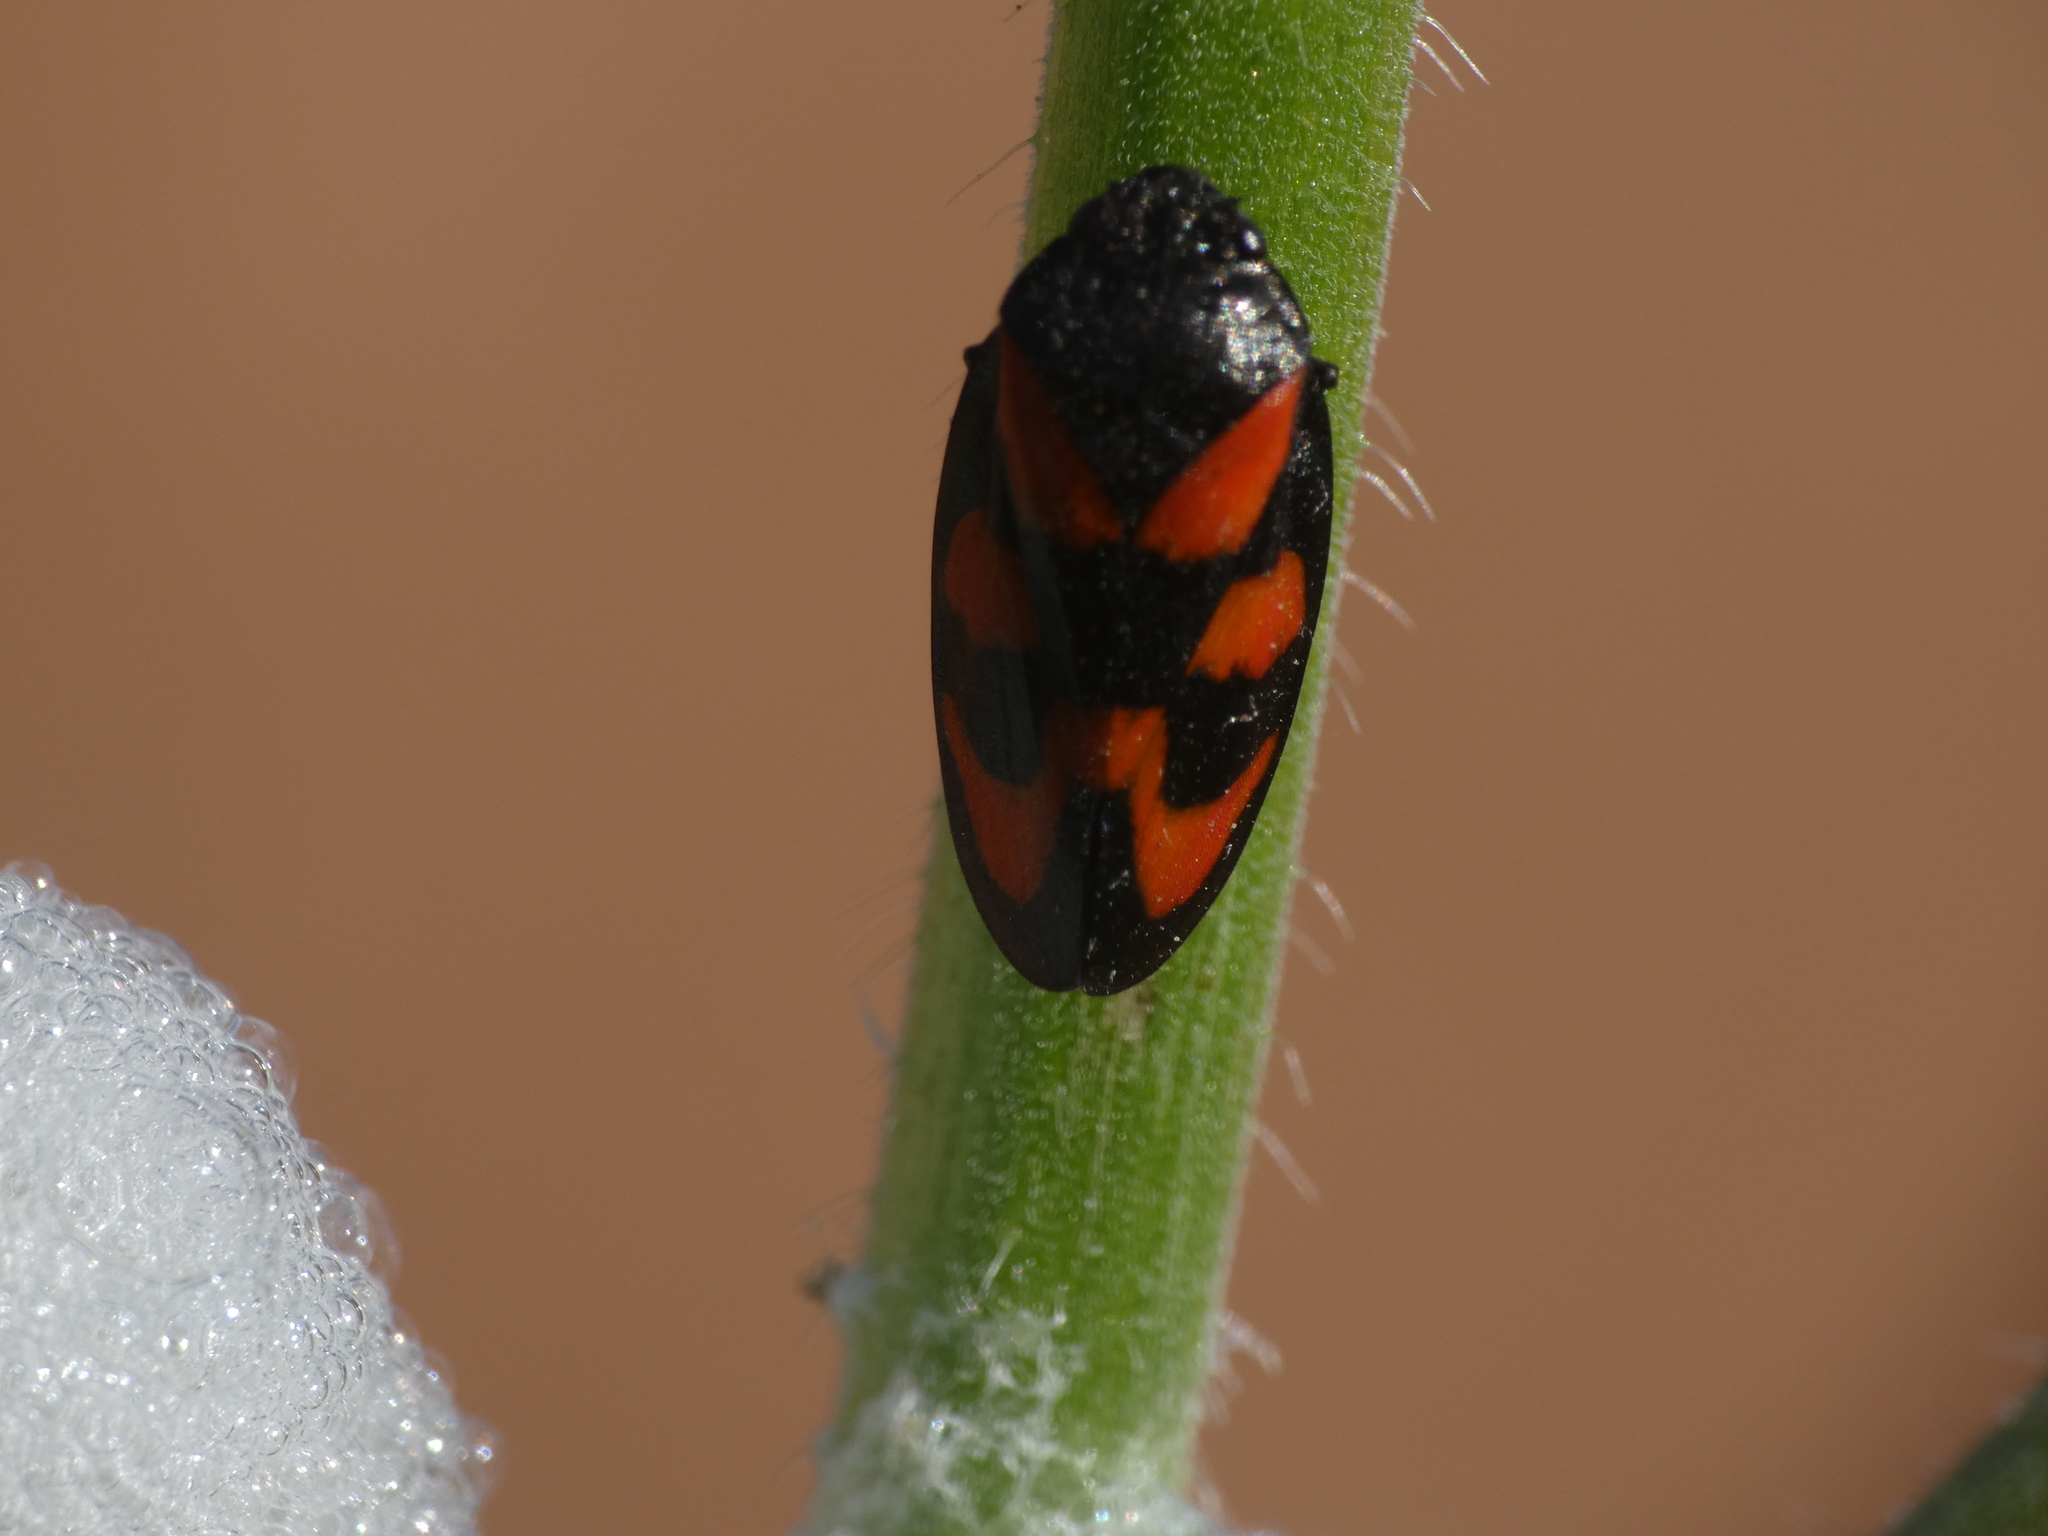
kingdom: Animalia
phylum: Arthropoda
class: Insecta
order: Hemiptera
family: Cercopidae
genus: Cercopis
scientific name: Cercopis vulnerata
